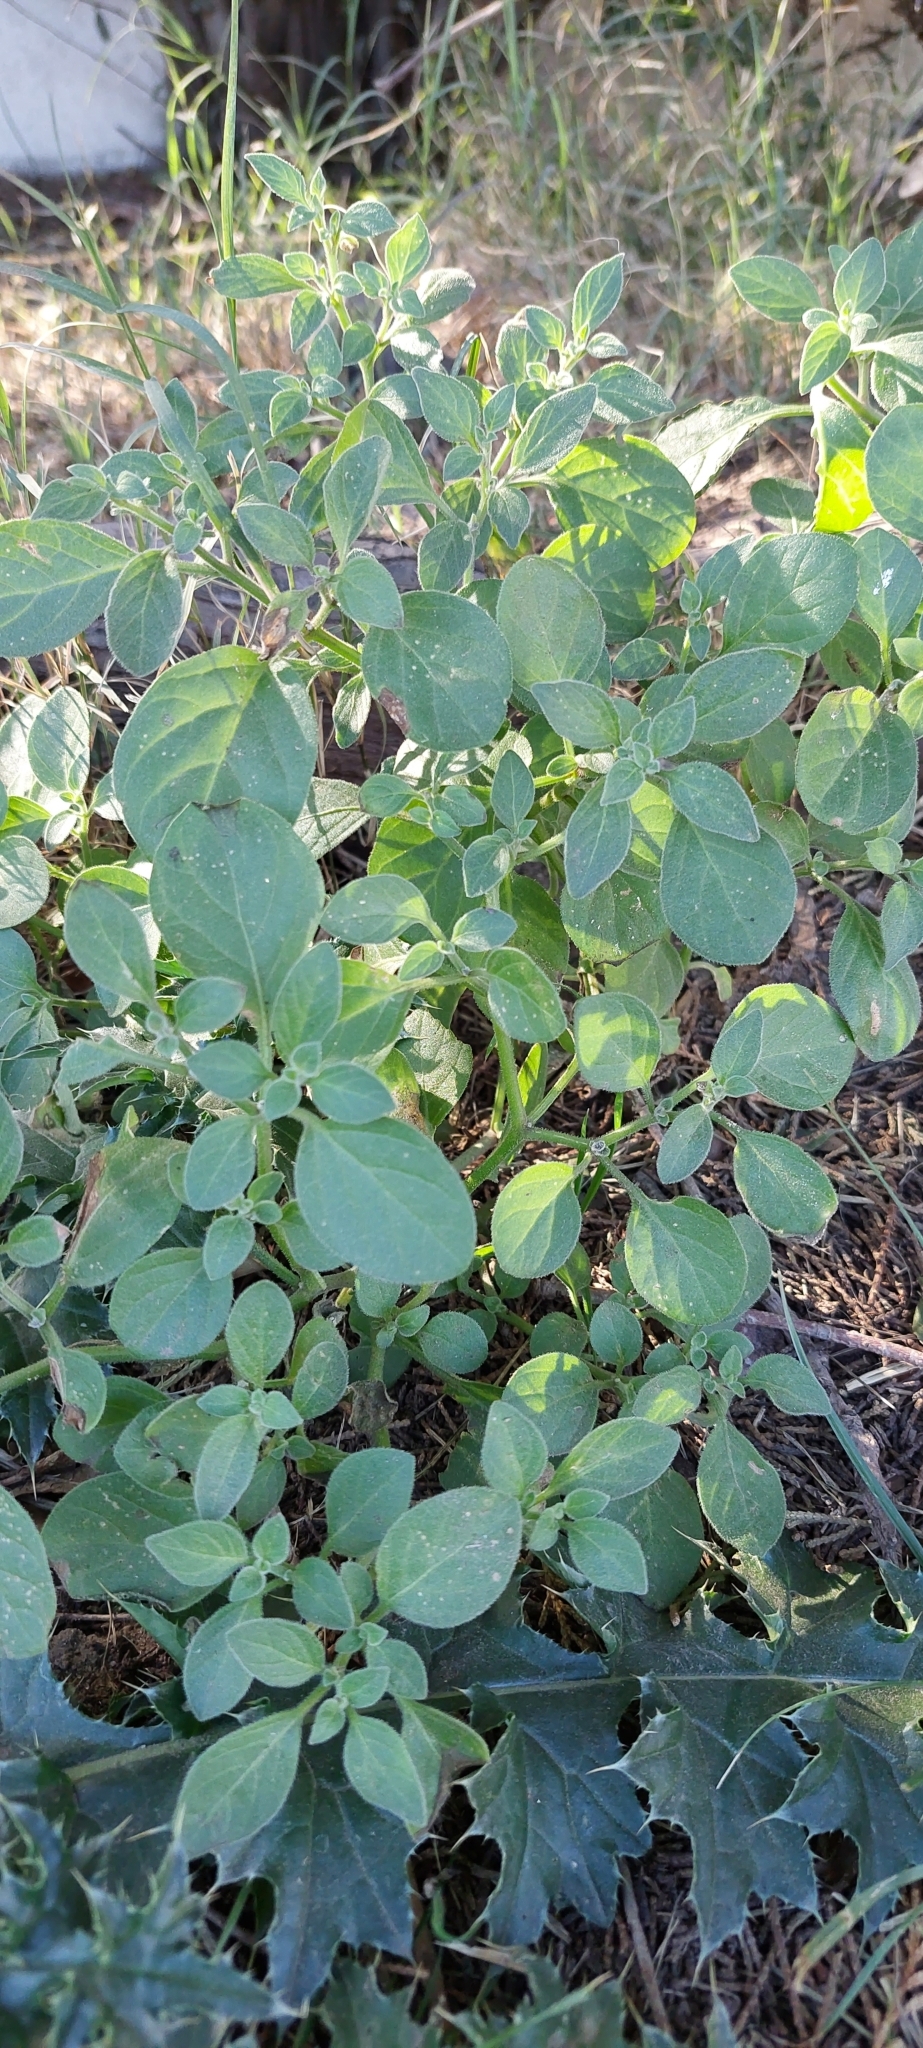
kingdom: Plantae
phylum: Tracheophyta
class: Magnoliopsida
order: Solanales
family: Solanaceae
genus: Salpichroa
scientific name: Salpichroa origanifolia
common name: Lily-of-the-valley-vine
